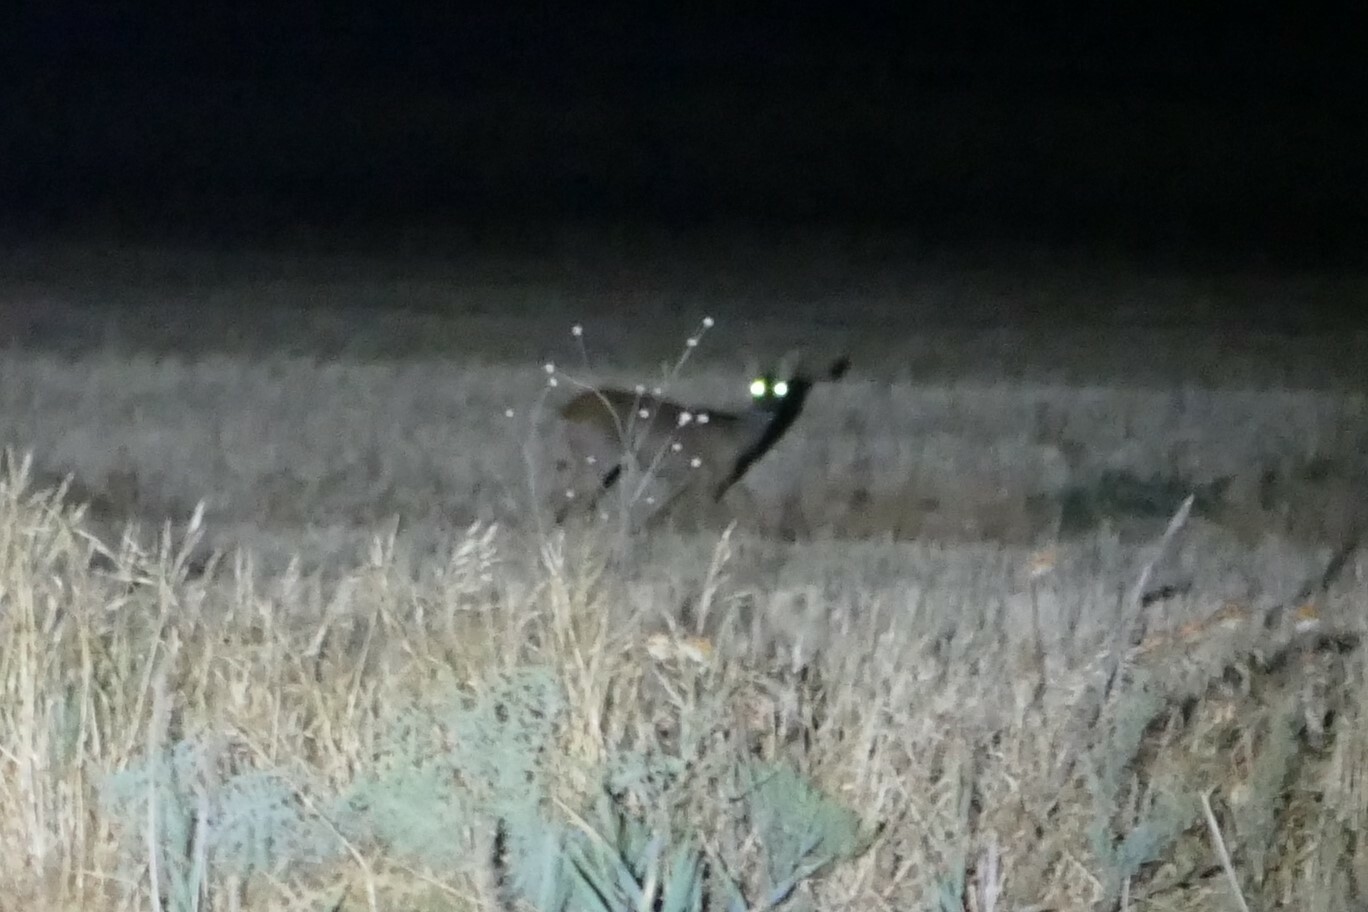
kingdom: Animalia
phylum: Chordata
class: Mammalia
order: Artiodactyla
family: Cervidae
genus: Capreolus
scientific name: Capreolus capreolus
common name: Western roe deer
